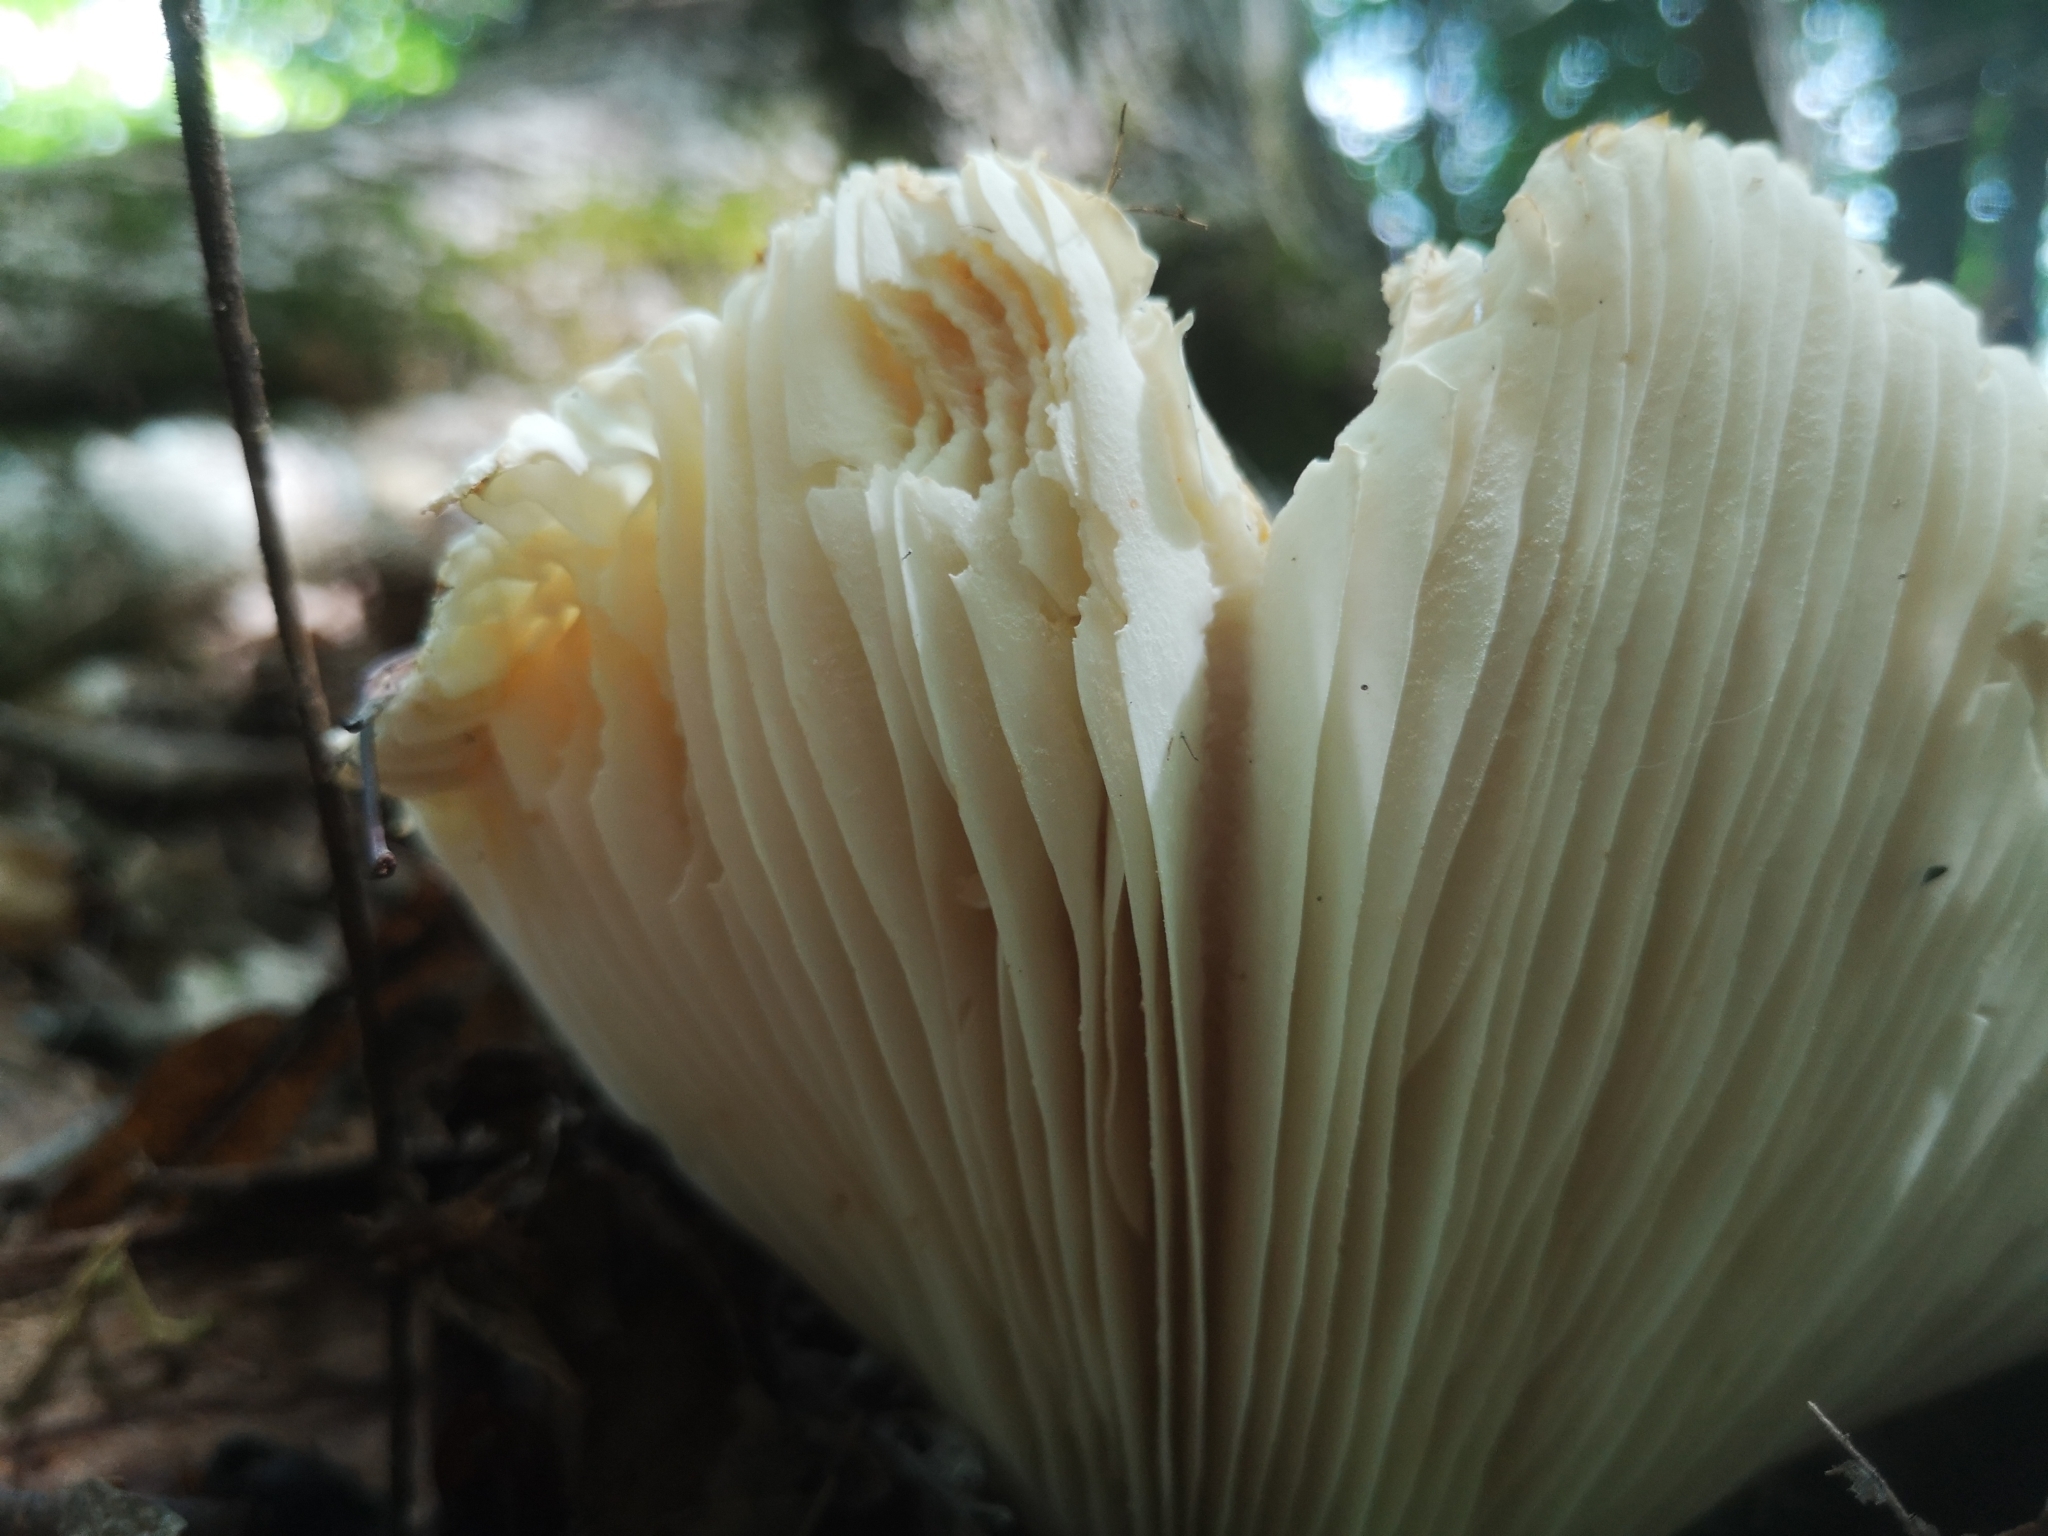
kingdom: Fungi
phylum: Basidiomycota
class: Agaricomycetes
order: Russulales
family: Russulaceae
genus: Russula
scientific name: Russula brevipes
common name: Short-stemmed russula
